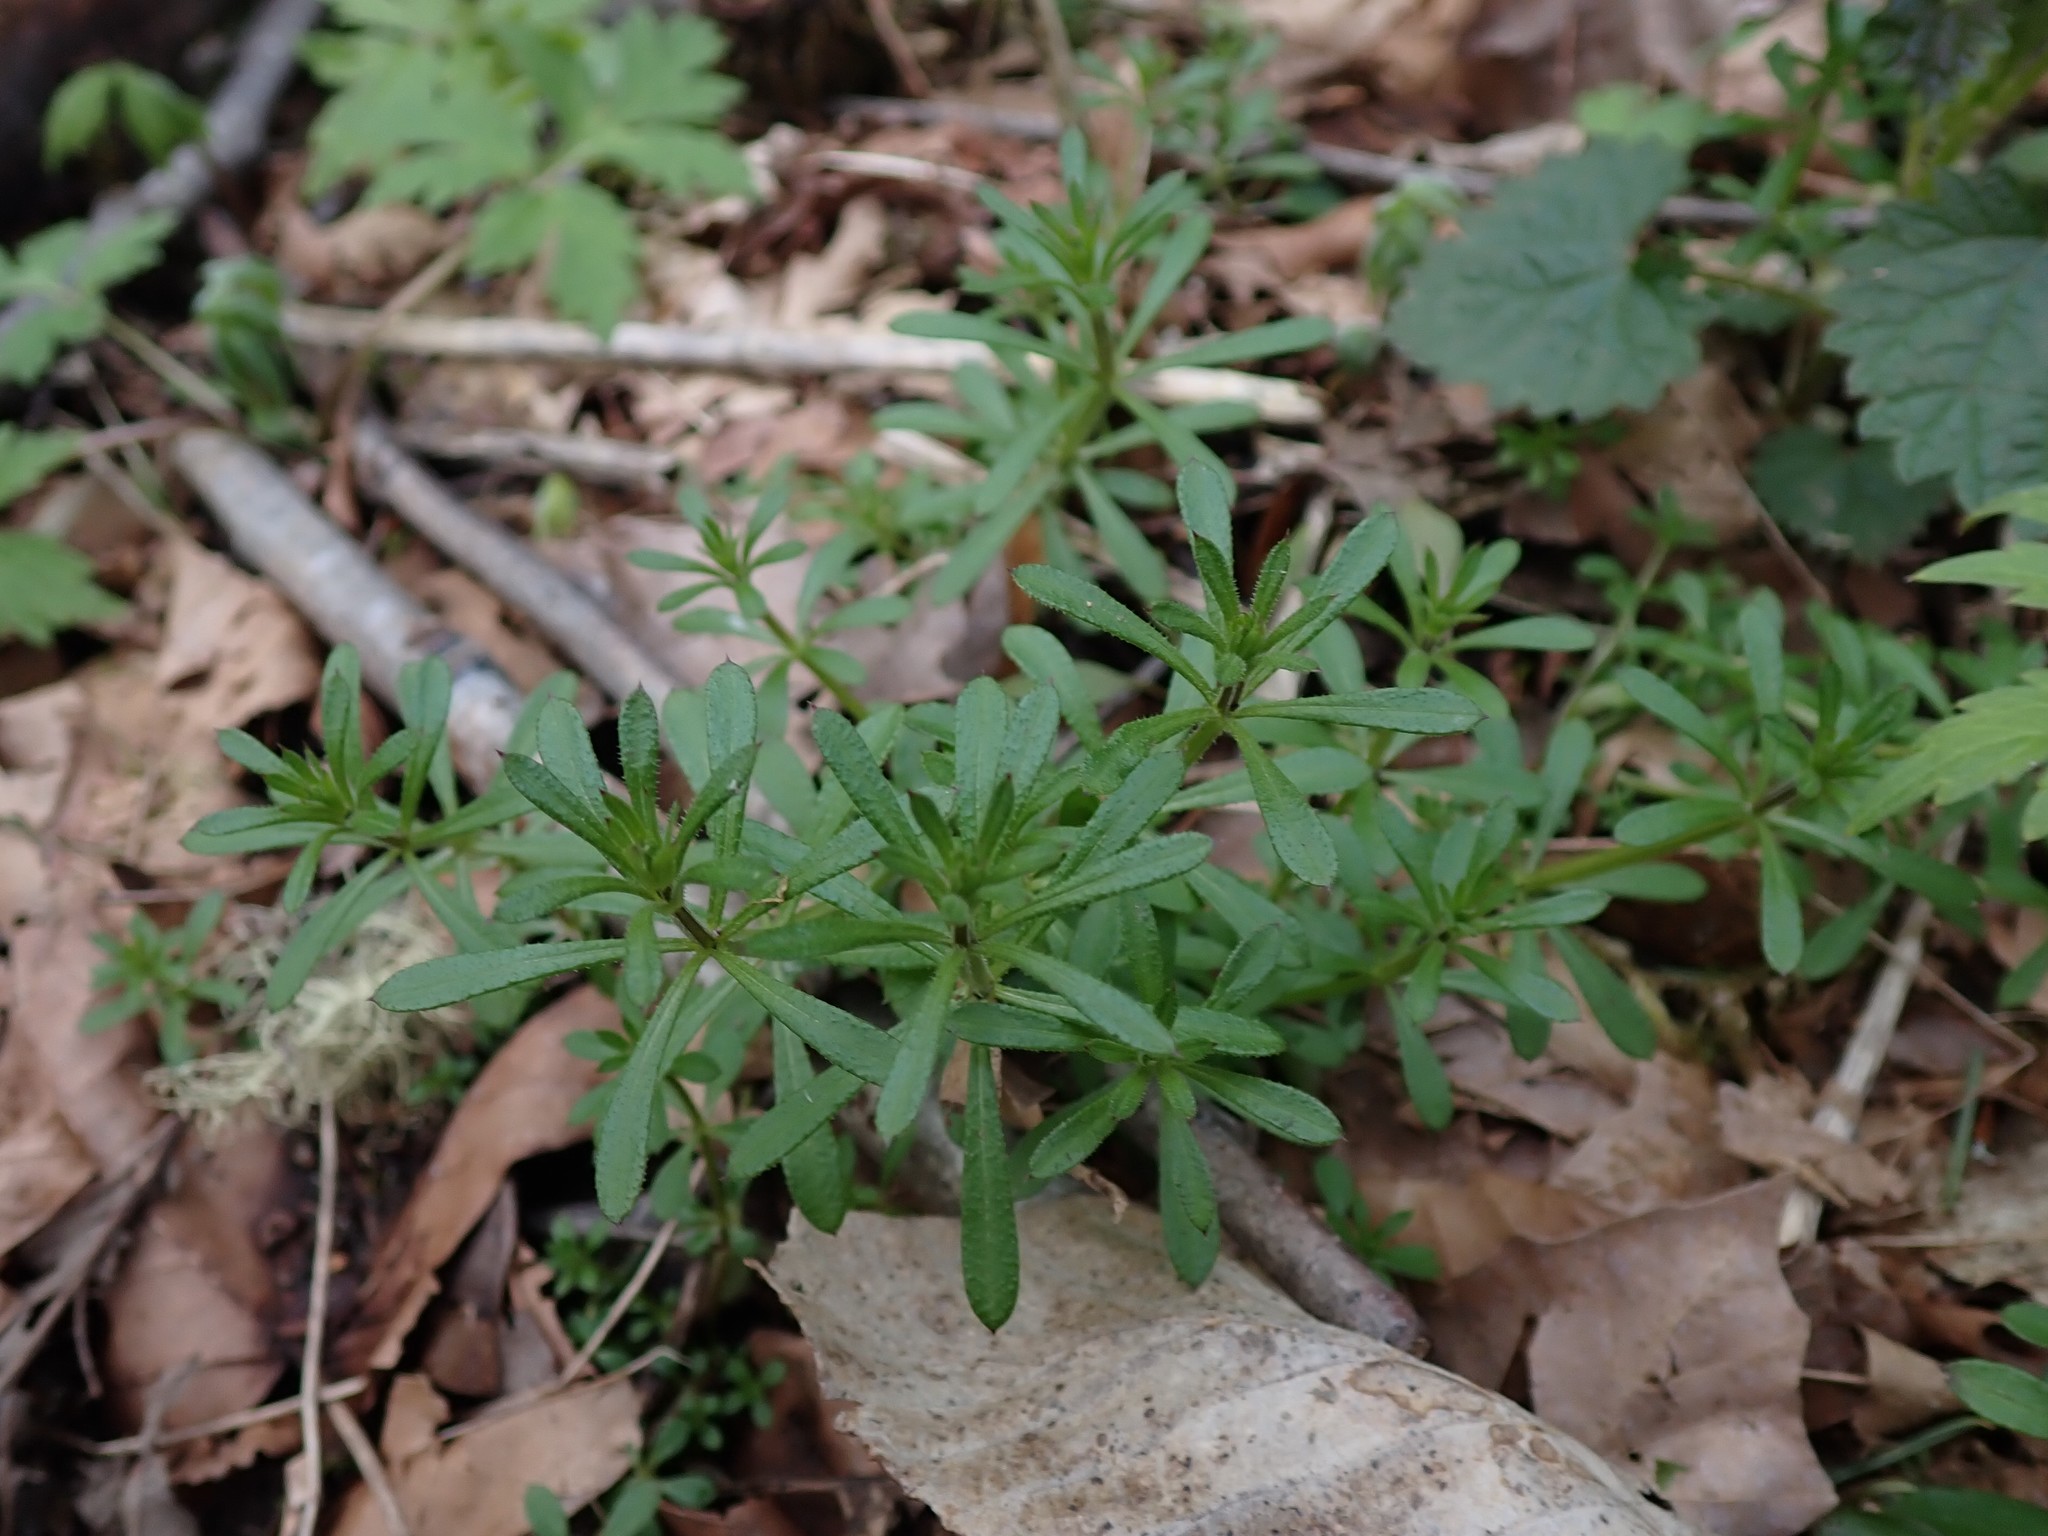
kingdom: Plantae
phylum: Tracheophyta
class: Magnoliopsida
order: Gentianales
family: Rubiaceae
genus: Galium
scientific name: Galium aparine
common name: Cleavers
